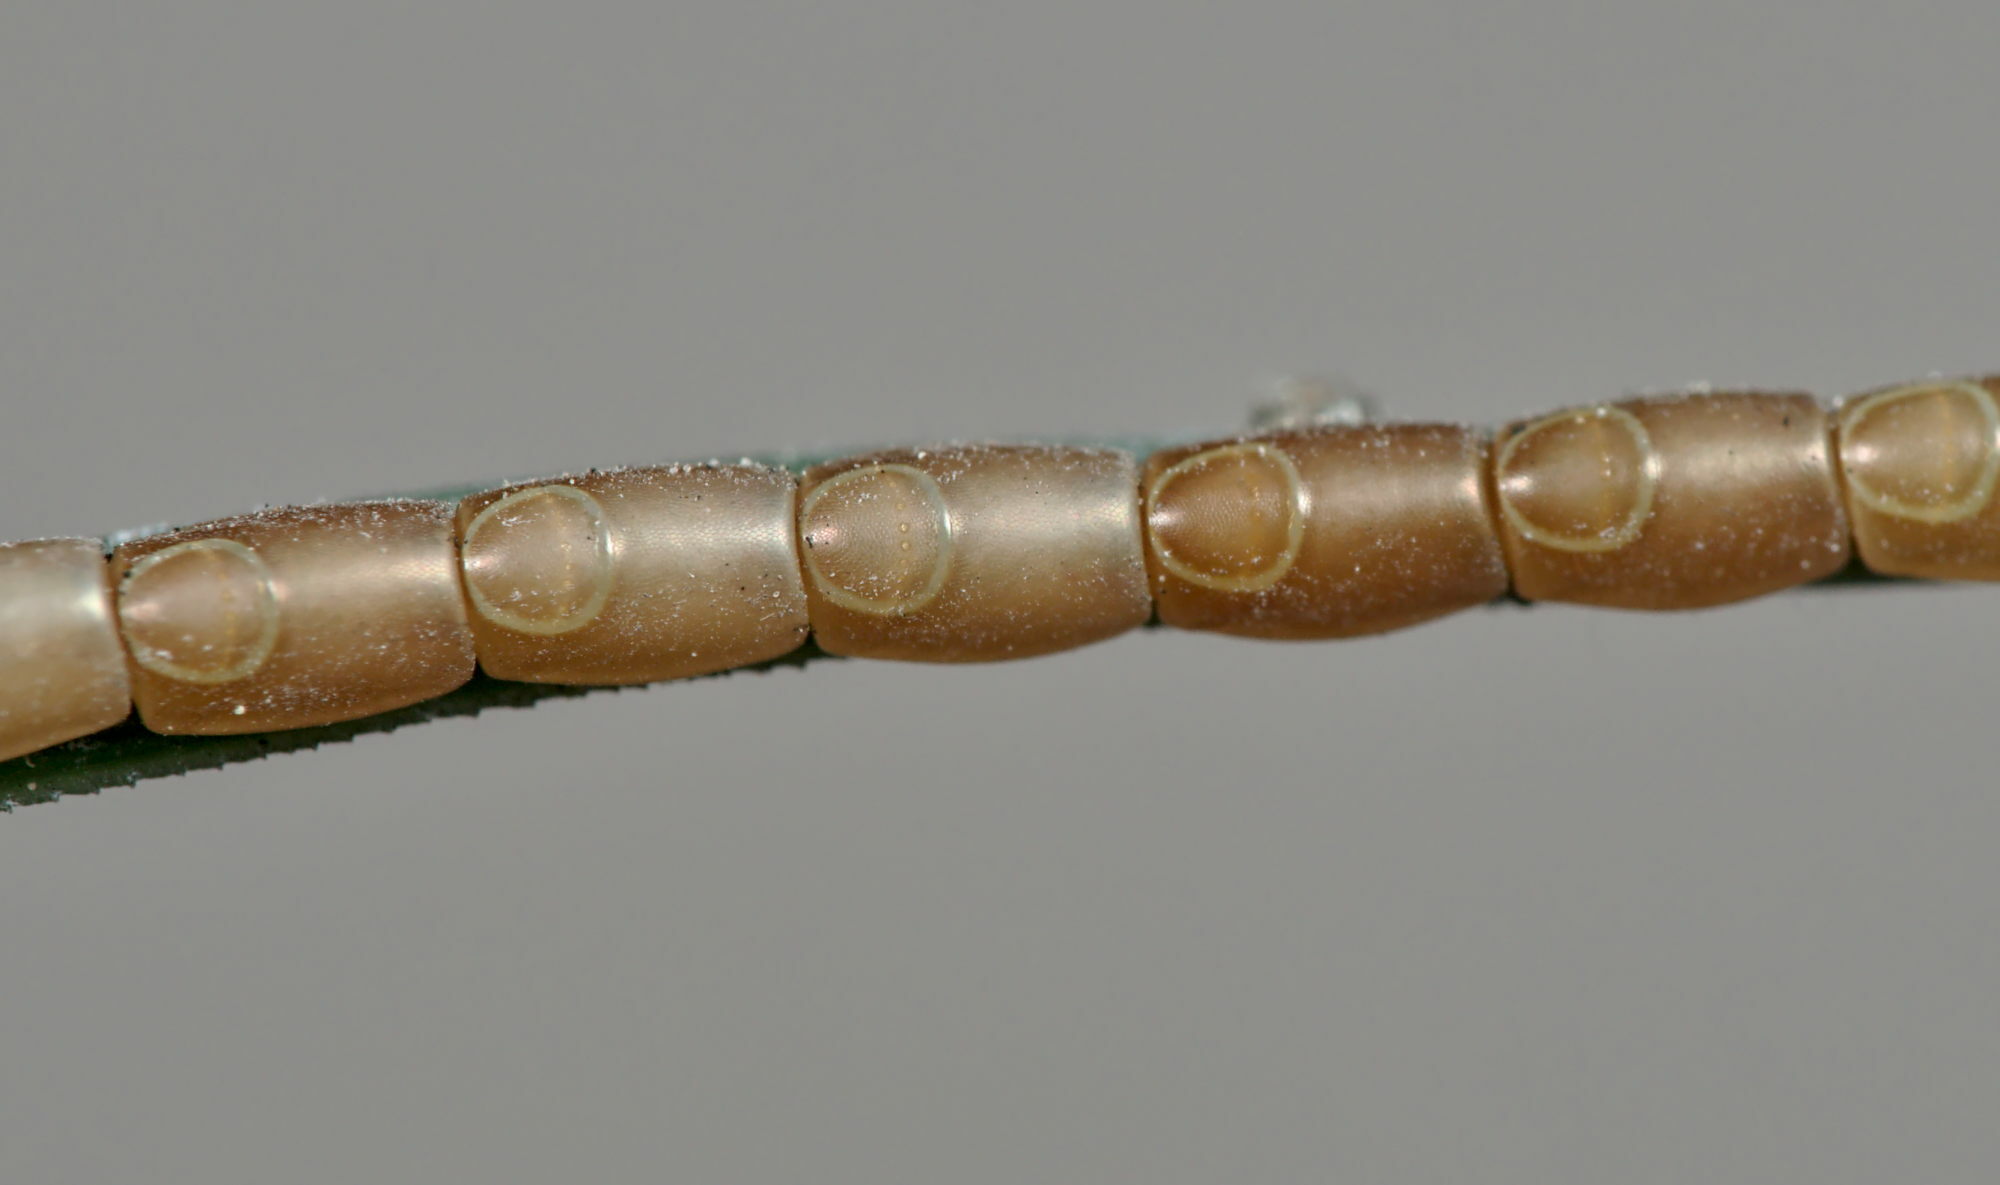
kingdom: Animalia
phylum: Arthropoda
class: Insecta
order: Hemiptera
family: Coreidae
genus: Leptoglossus
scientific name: Leptoglossus occidentalis
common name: Western conifer-seed bug
